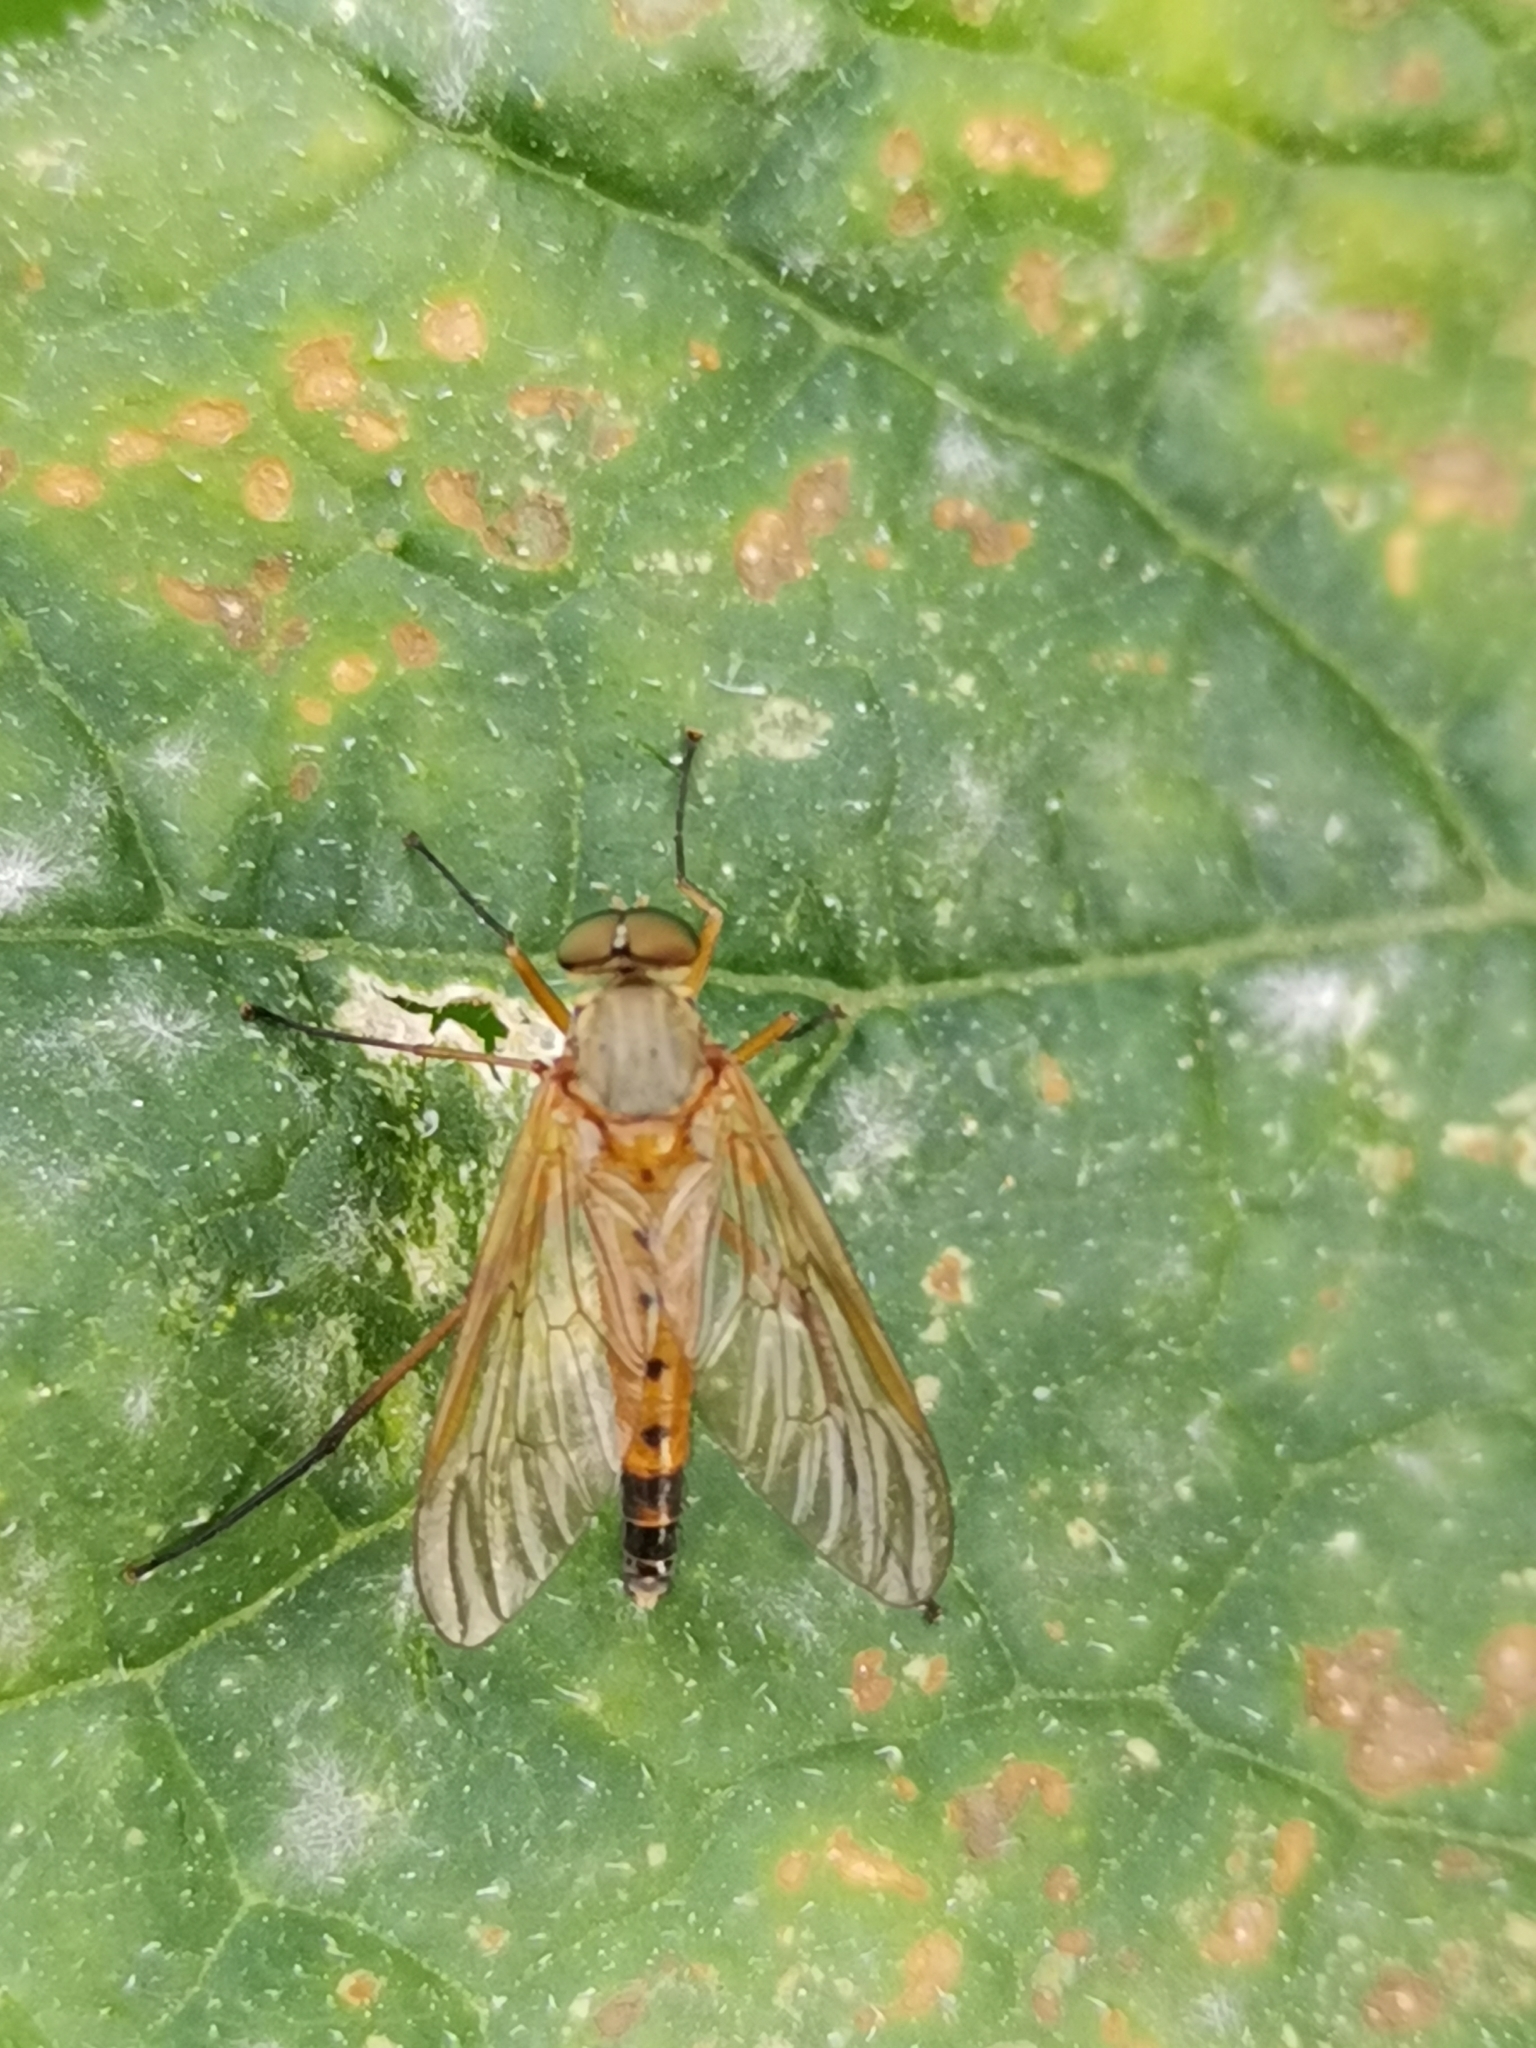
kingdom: Animalia
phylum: Arthropoda
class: Insecta
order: Diptera
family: Rhagionidae
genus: Rhagio
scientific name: Rhagio tringaria
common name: Marsh snipefly
